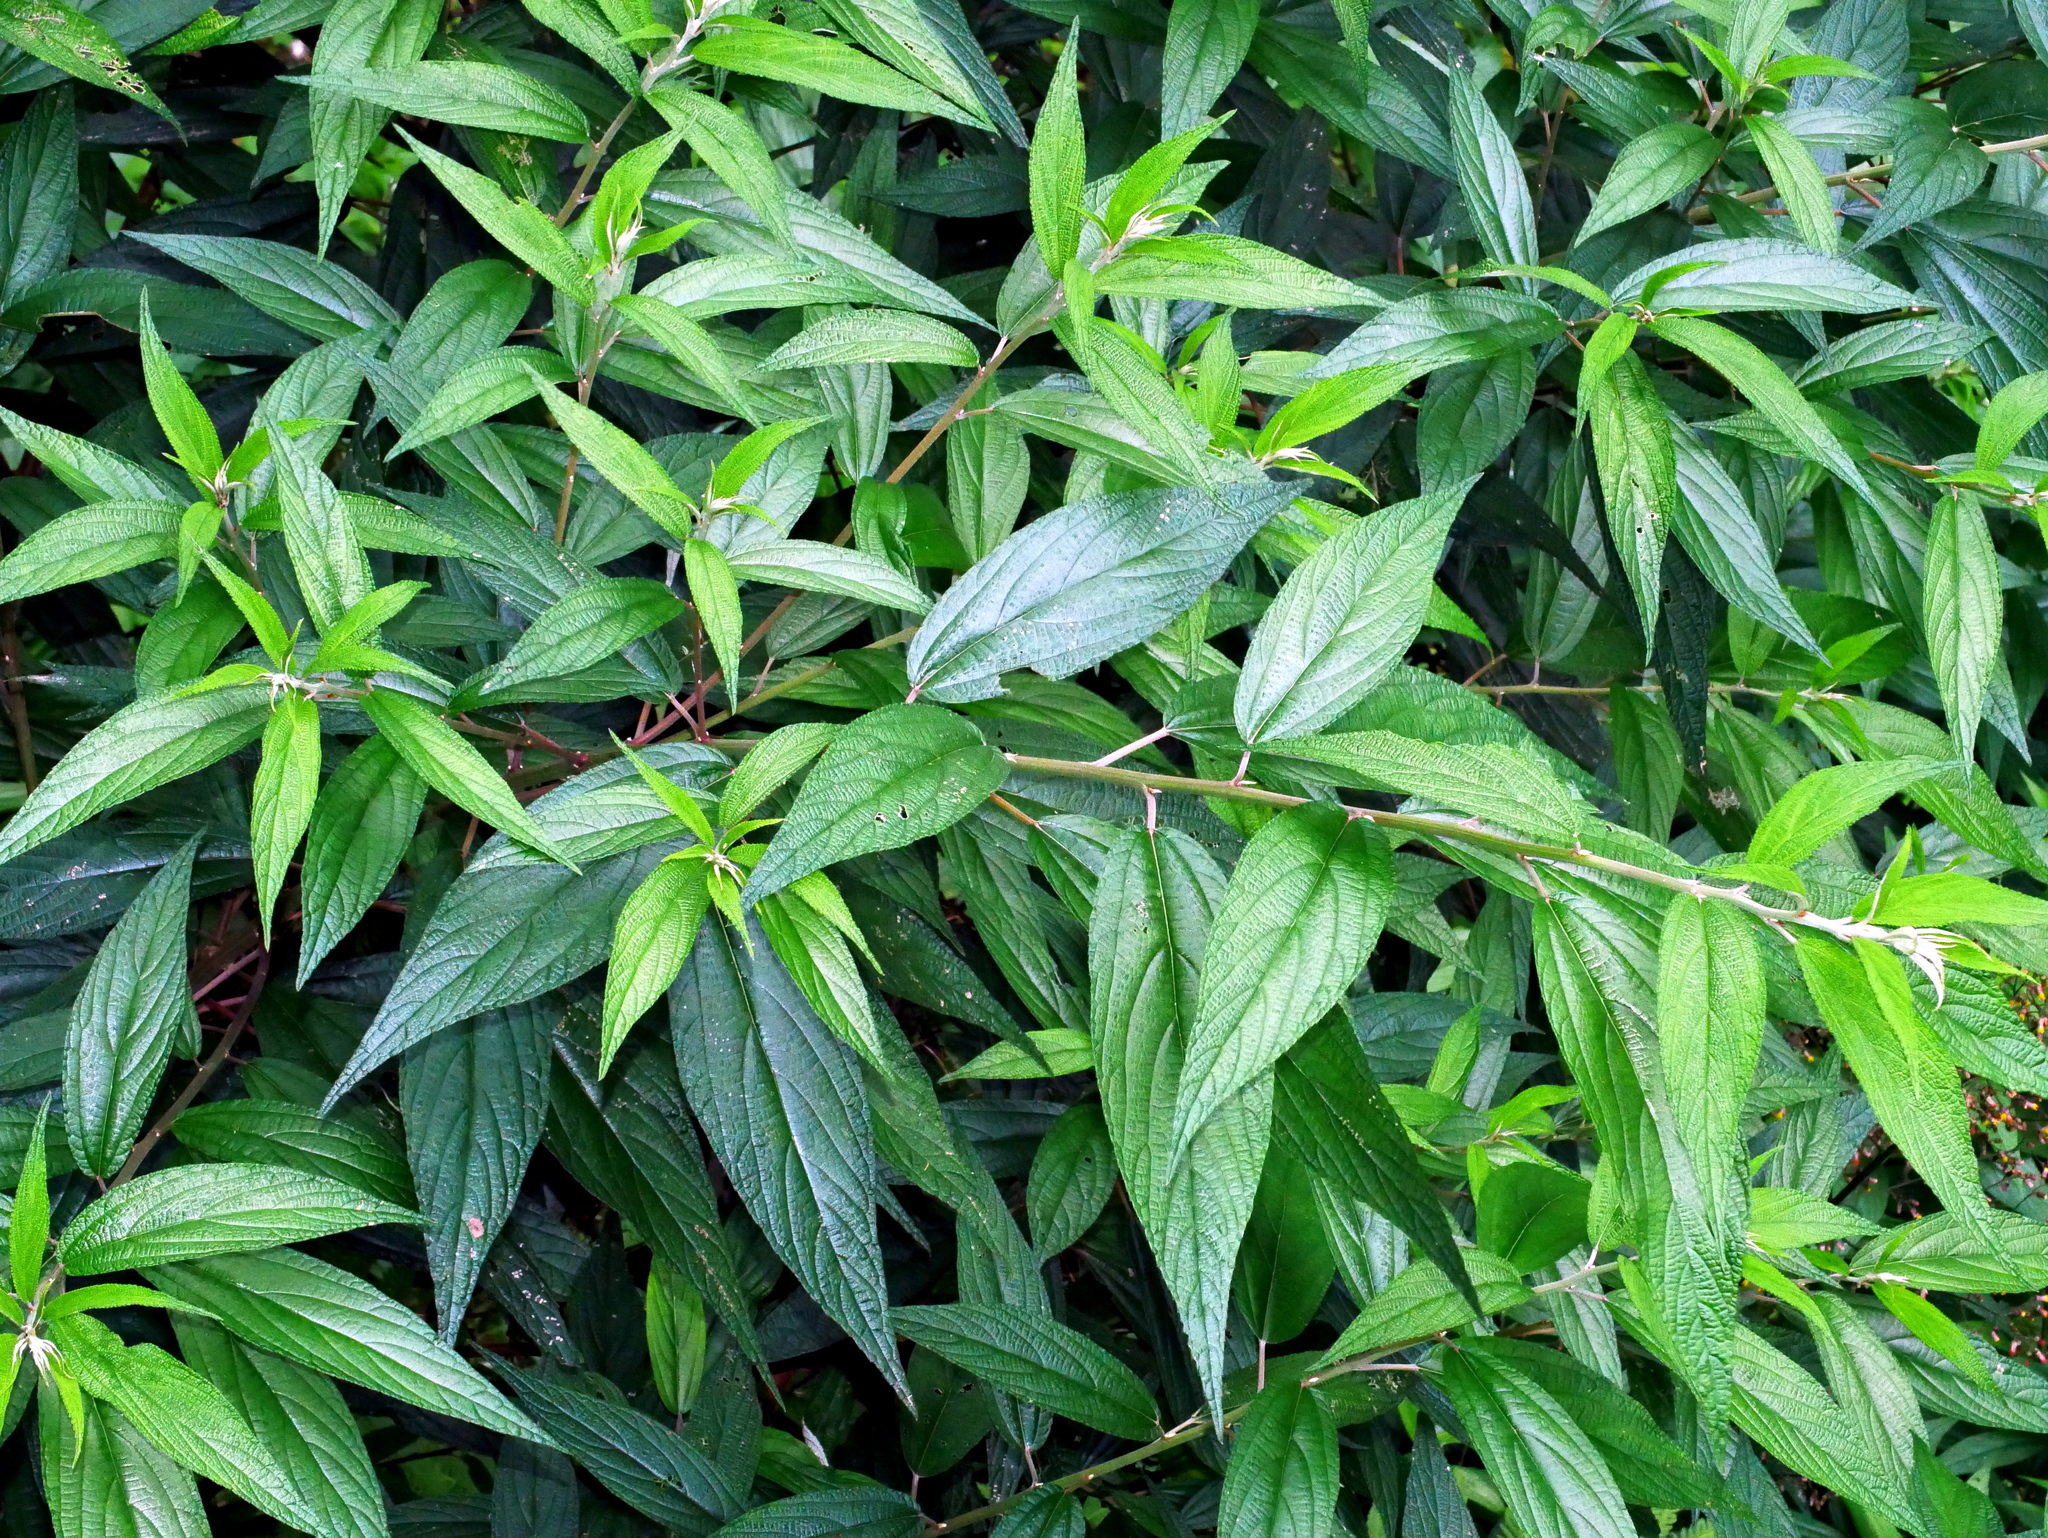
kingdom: Plantae
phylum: Tracheophyta
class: Magnoliopsida
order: Rosales
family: Urticaceae
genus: Oreocnide
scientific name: Oreocnide pedunculata
